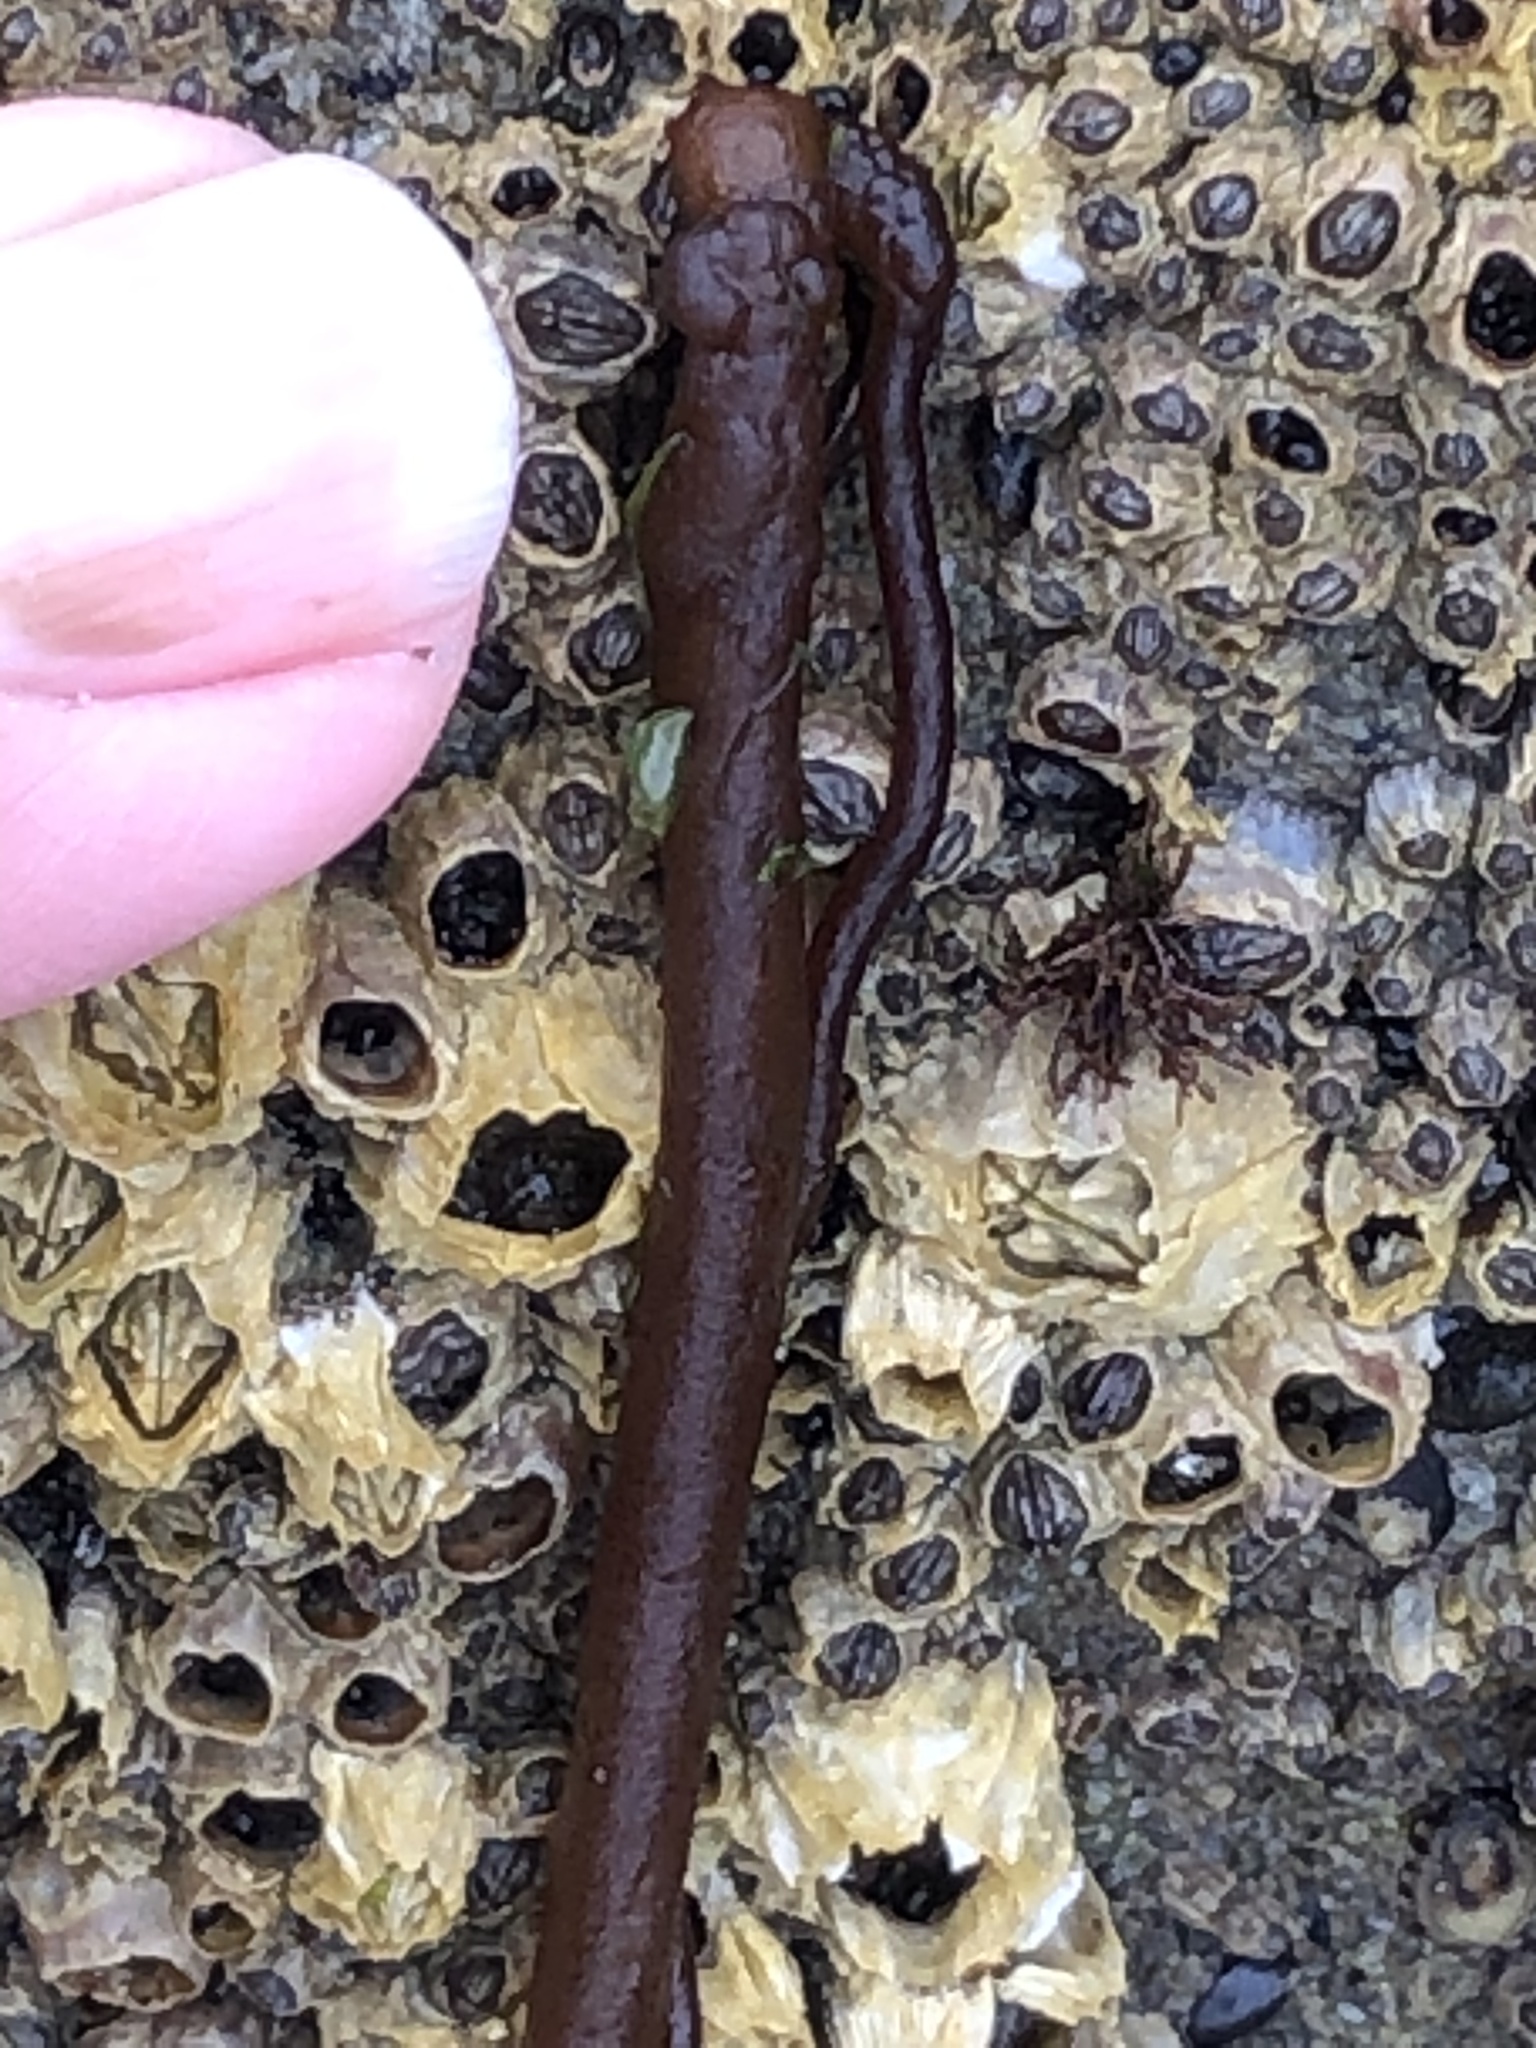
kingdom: Plantae
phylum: Rhodophyta
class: Florideophyceae
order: Nemaliales
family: Nemaliaceae
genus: Nemalion
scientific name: Nemalion elminthoides
